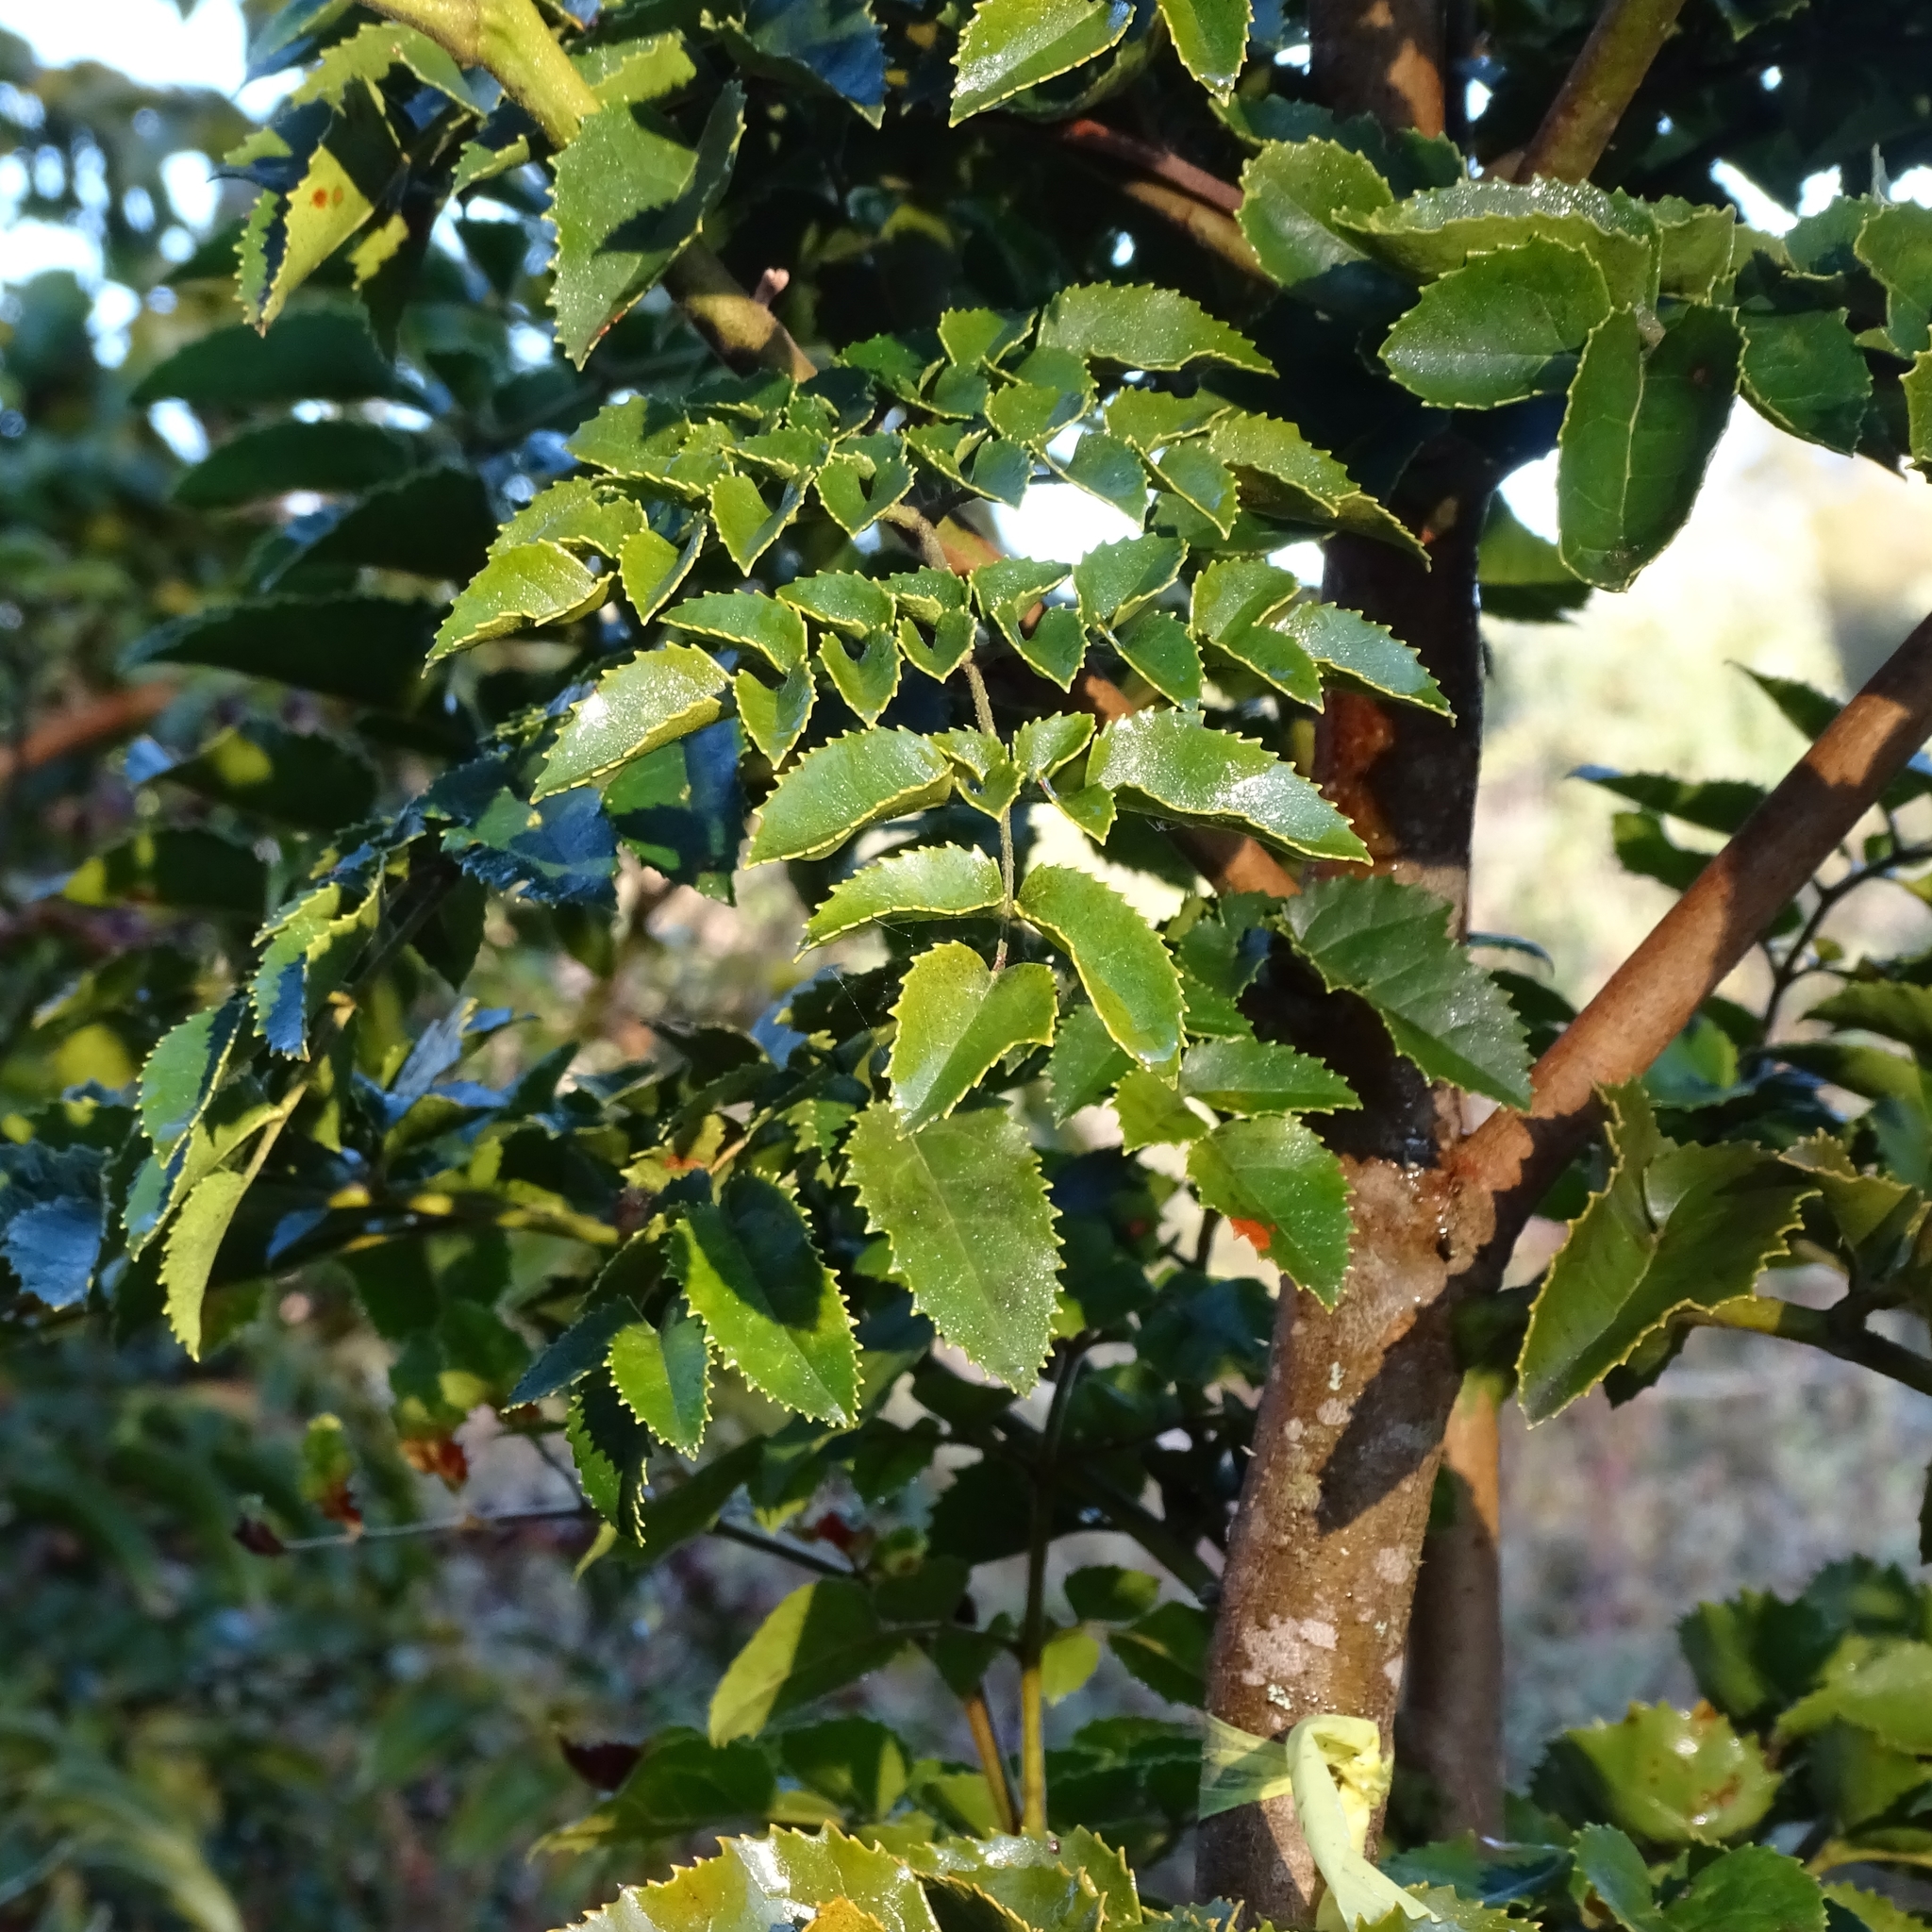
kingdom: Plantae
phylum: Tracheophyta
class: Magnoliopsida
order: Proteales
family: Proteaceae
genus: Gevuina
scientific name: Gevuina avellana
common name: Chilean hazel
